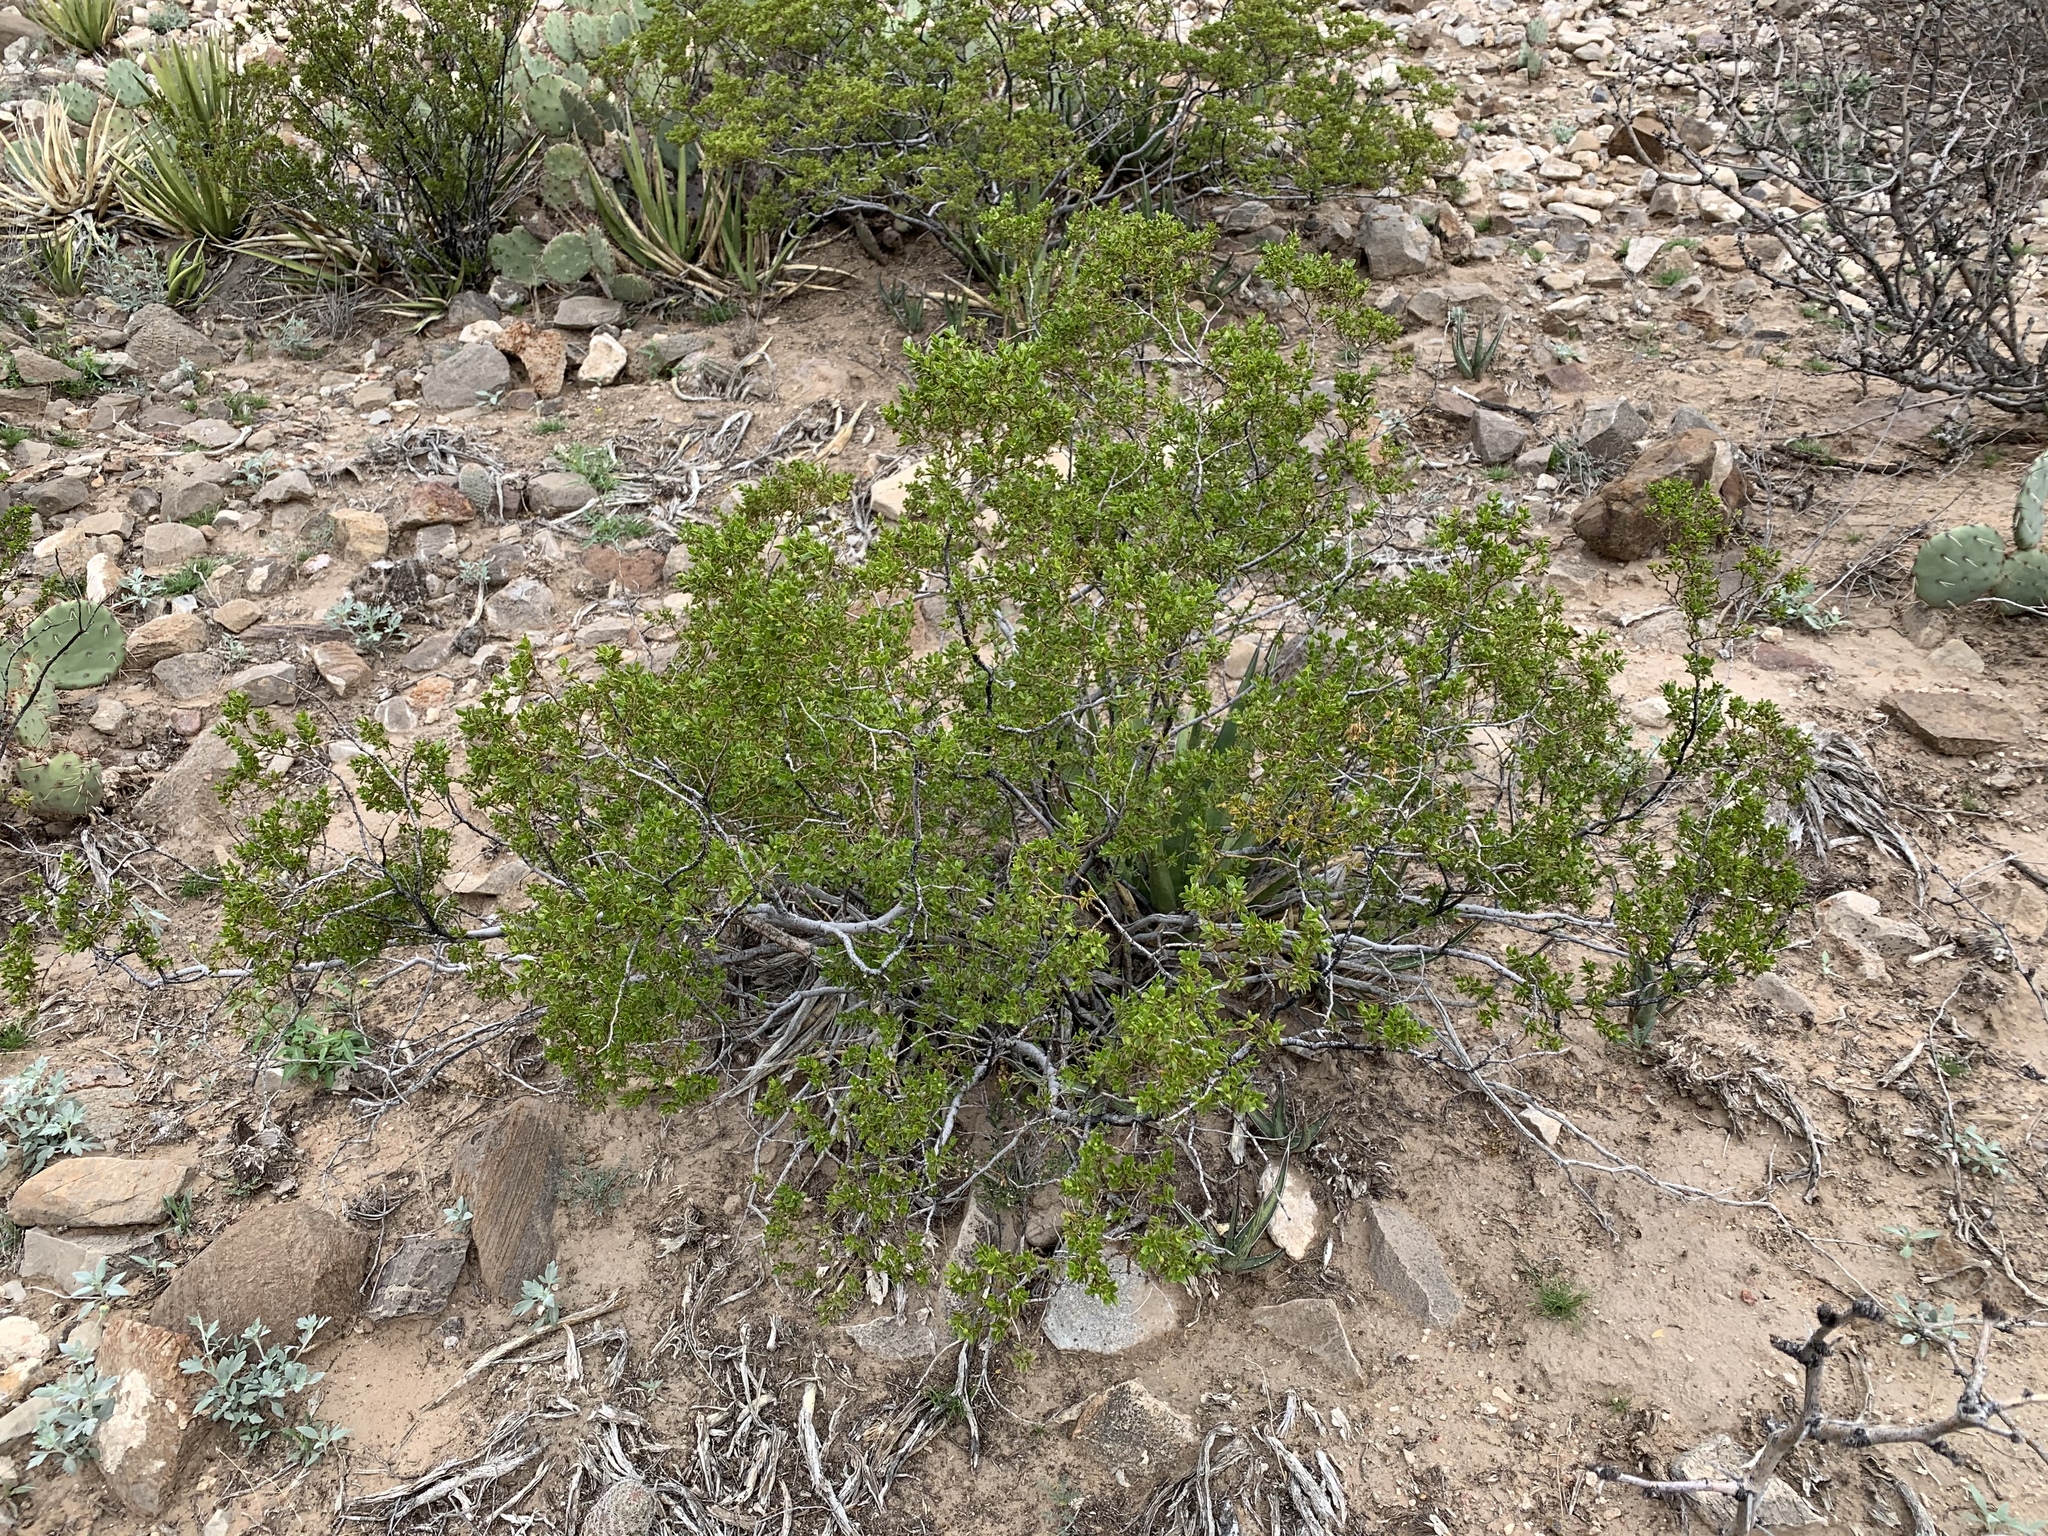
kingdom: Plantae
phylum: Tracheophyta
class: Magnoliopsida
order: Zygophyllales
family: Zygophyllaceae
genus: Larrea
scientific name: Larrea tridentata
